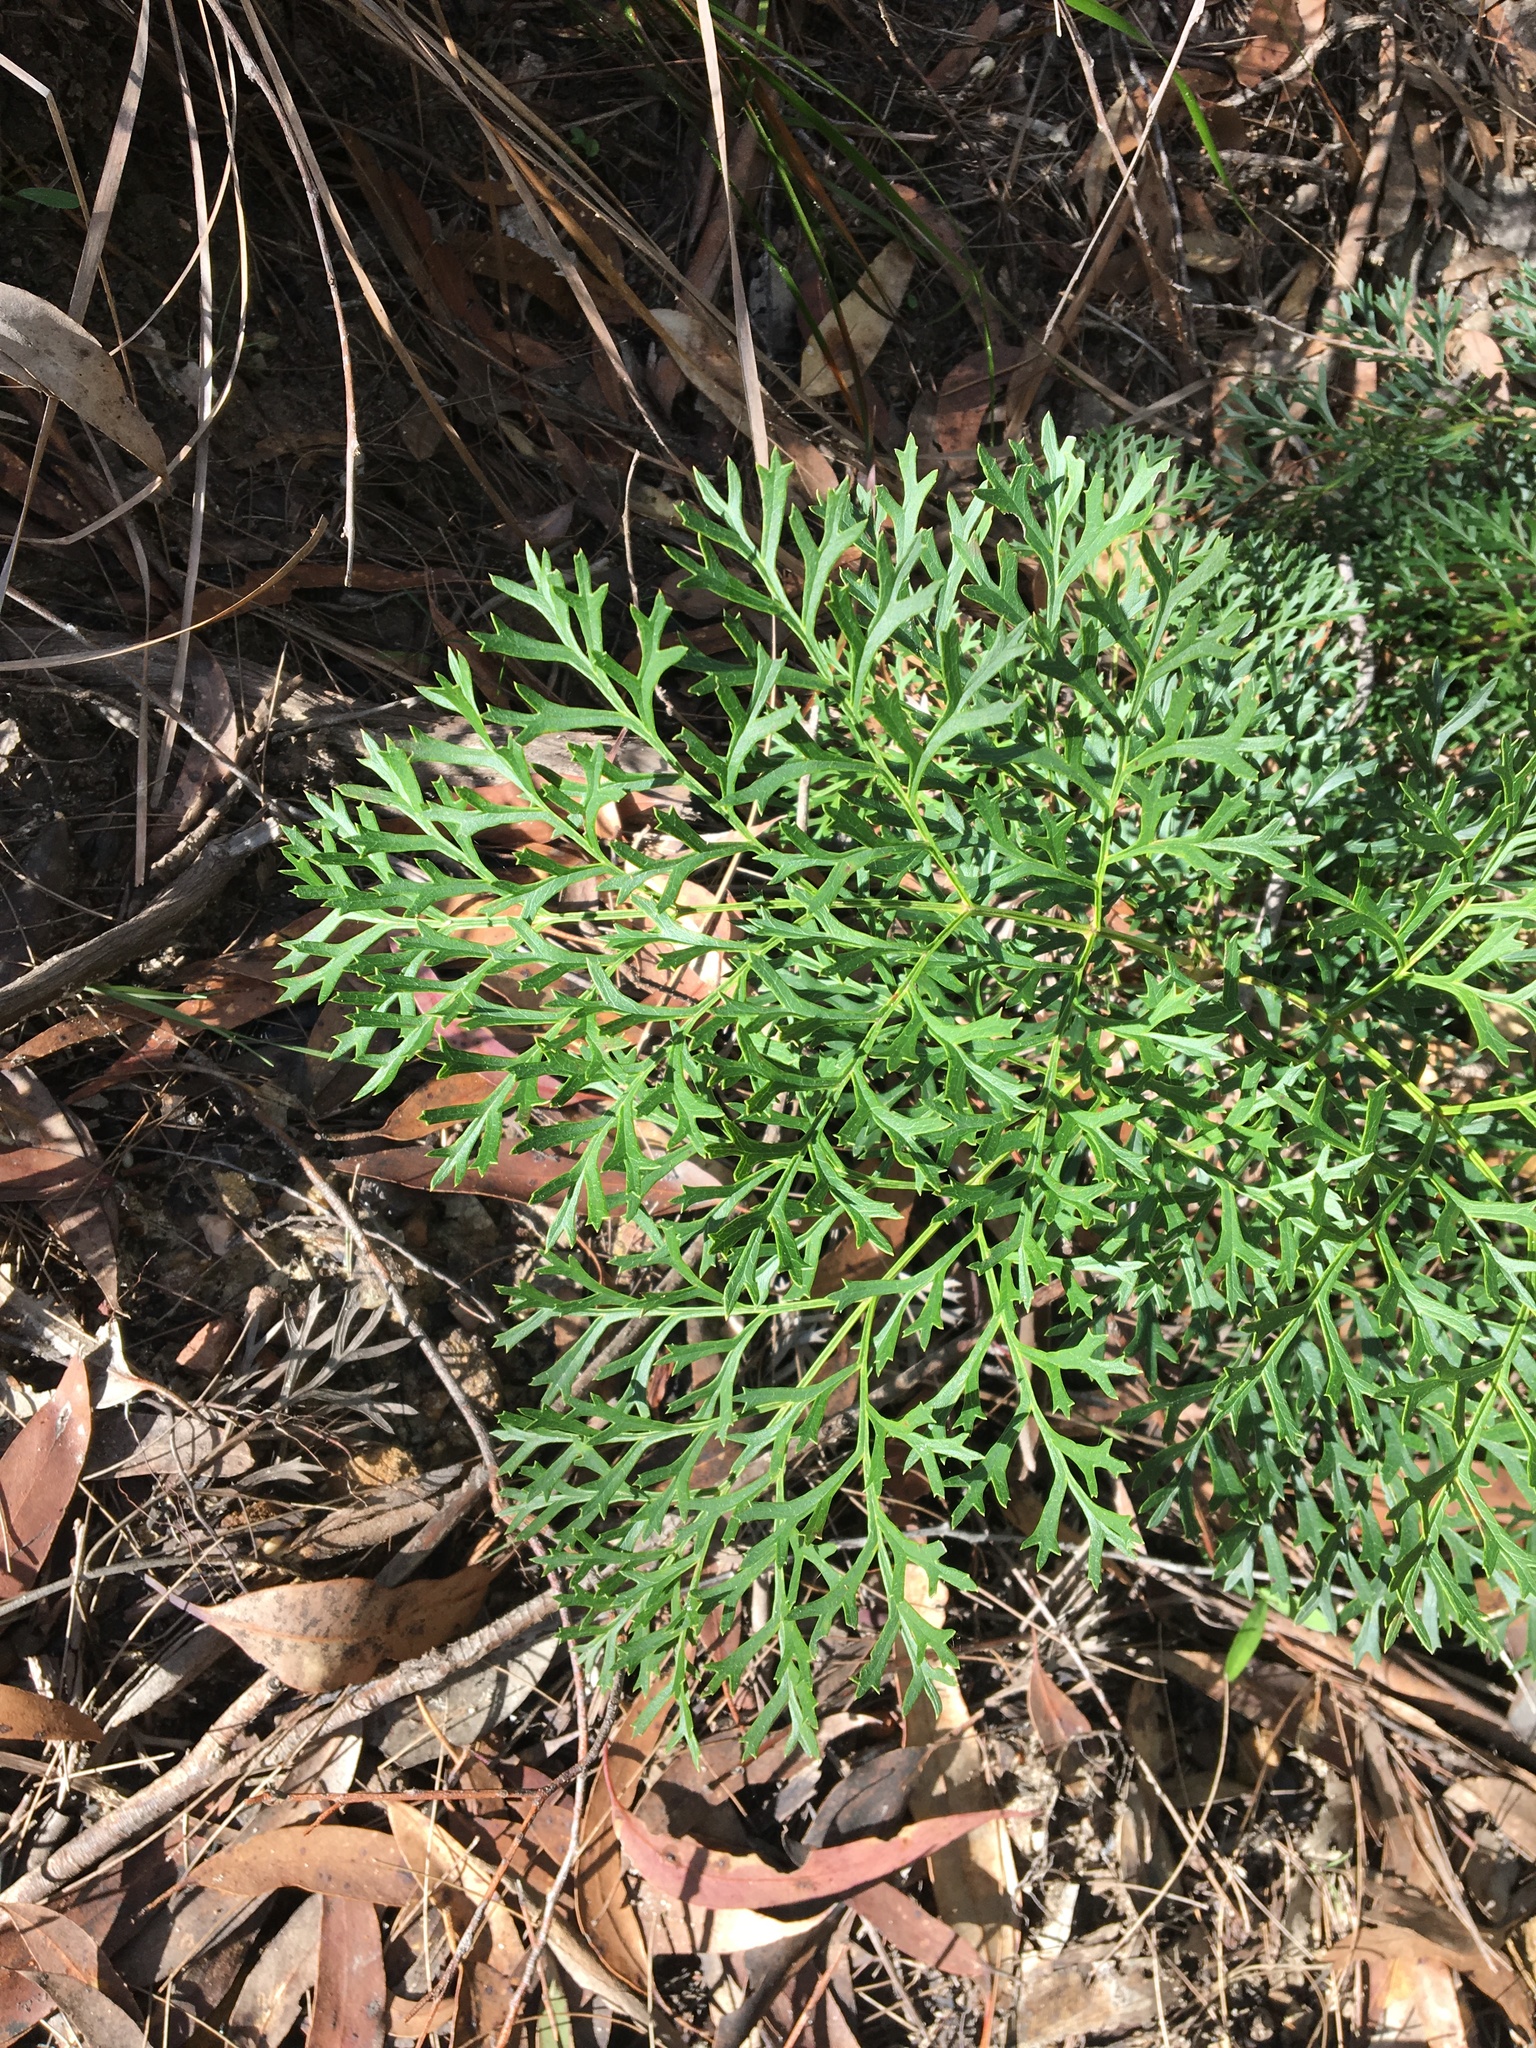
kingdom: Plantae
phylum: Tracheophyta
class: Magnoliopsida
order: Proteales
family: Proteaceae
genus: Lomatia
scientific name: Lomatia silaifolia
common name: Crinklebush
